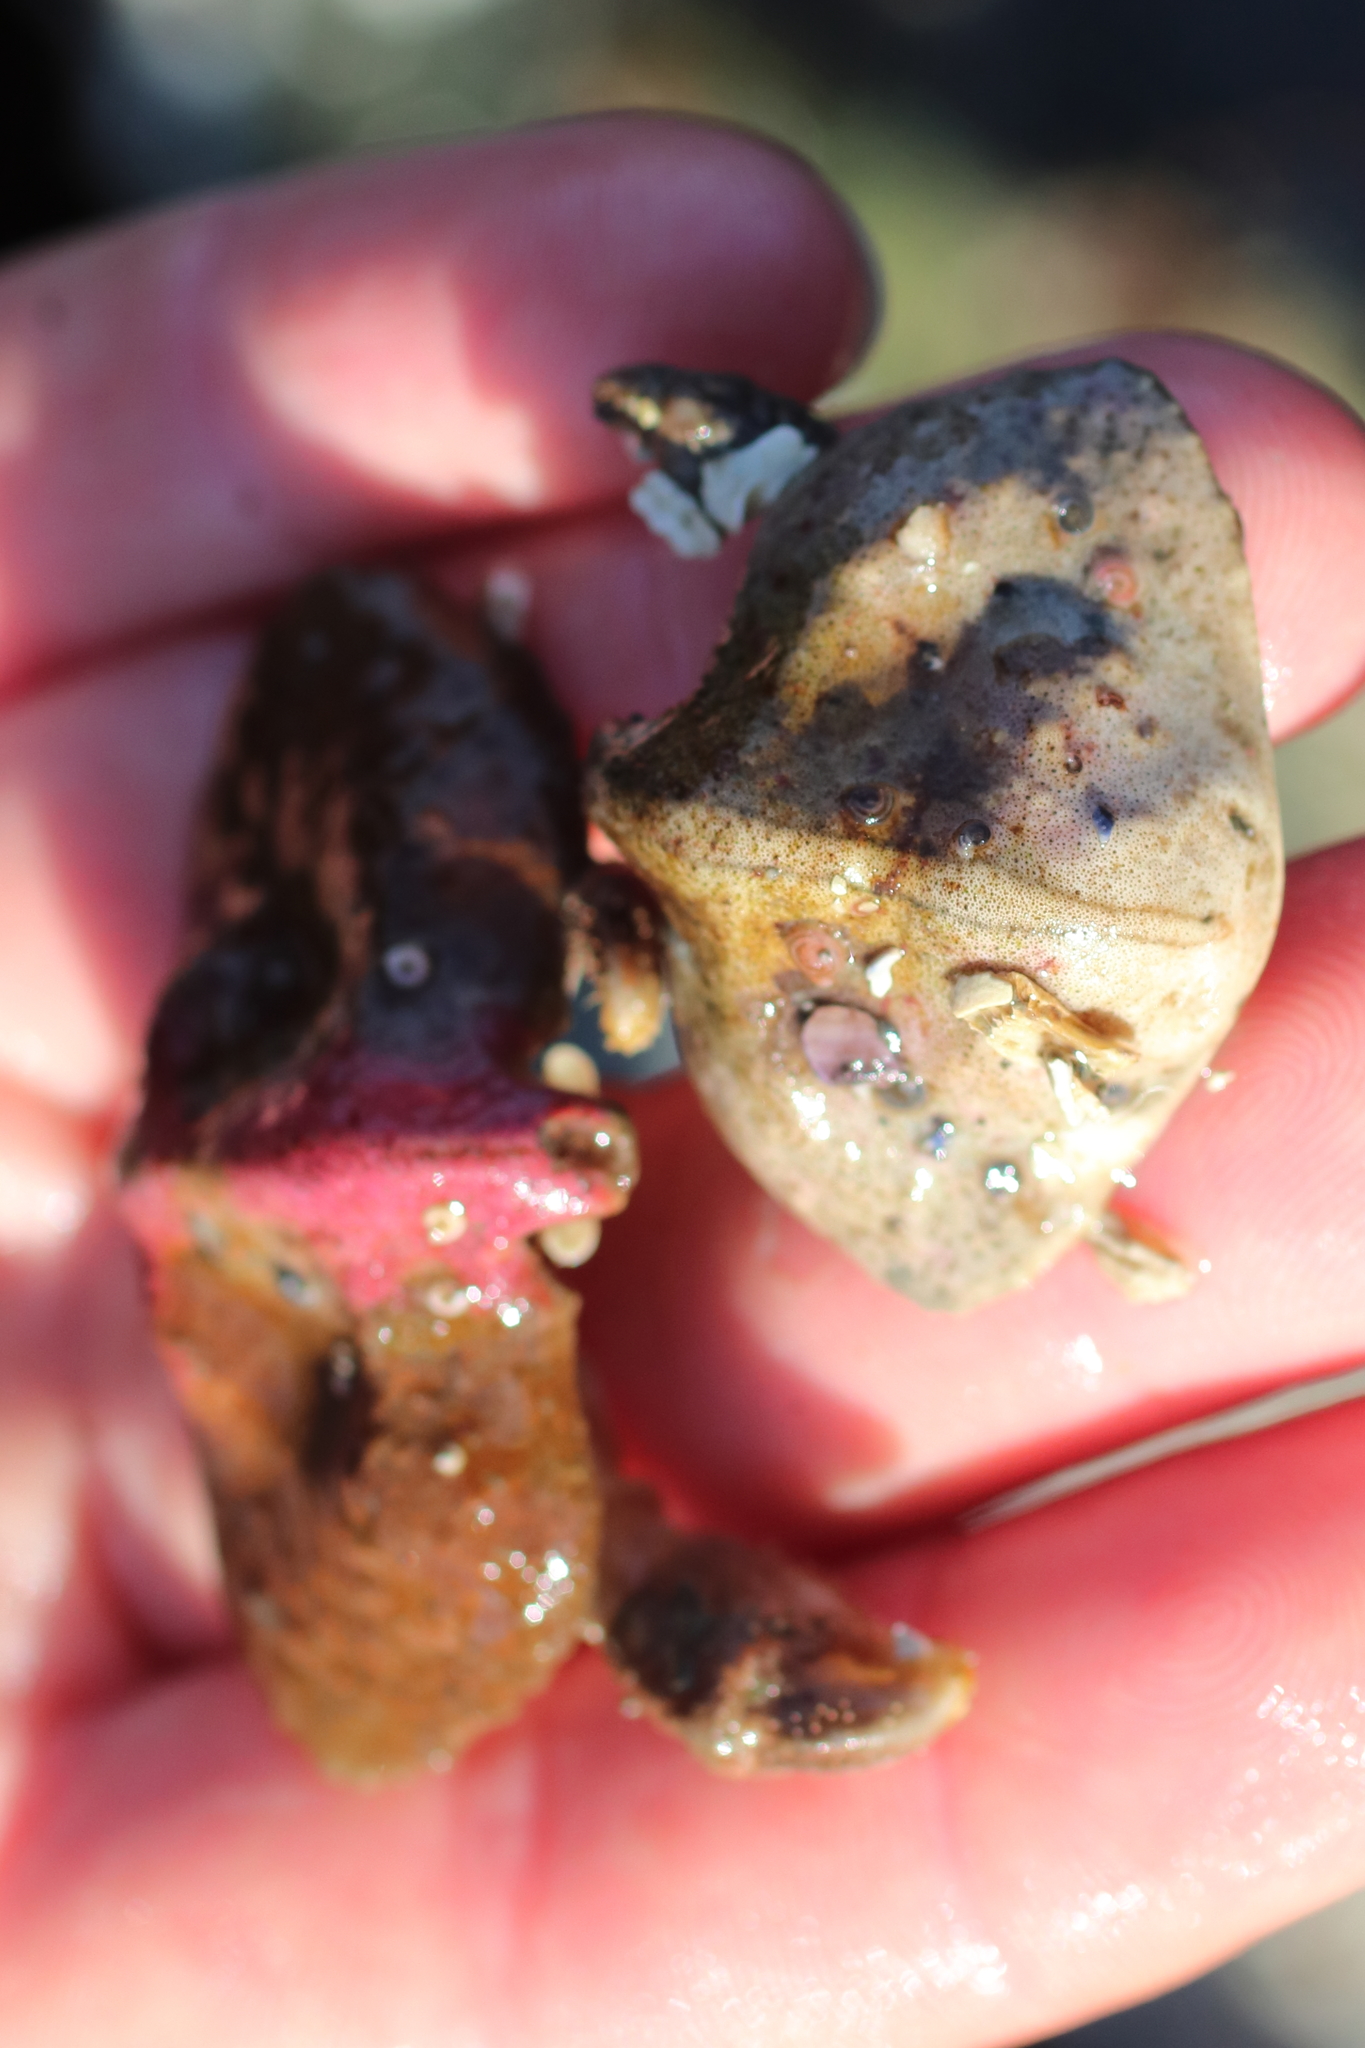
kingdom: Animalia
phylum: Arthropoda
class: Malacostraca
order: Decapoda
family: Lithodidae
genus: Cryptolithodes
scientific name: Cryptolithodes typicus
